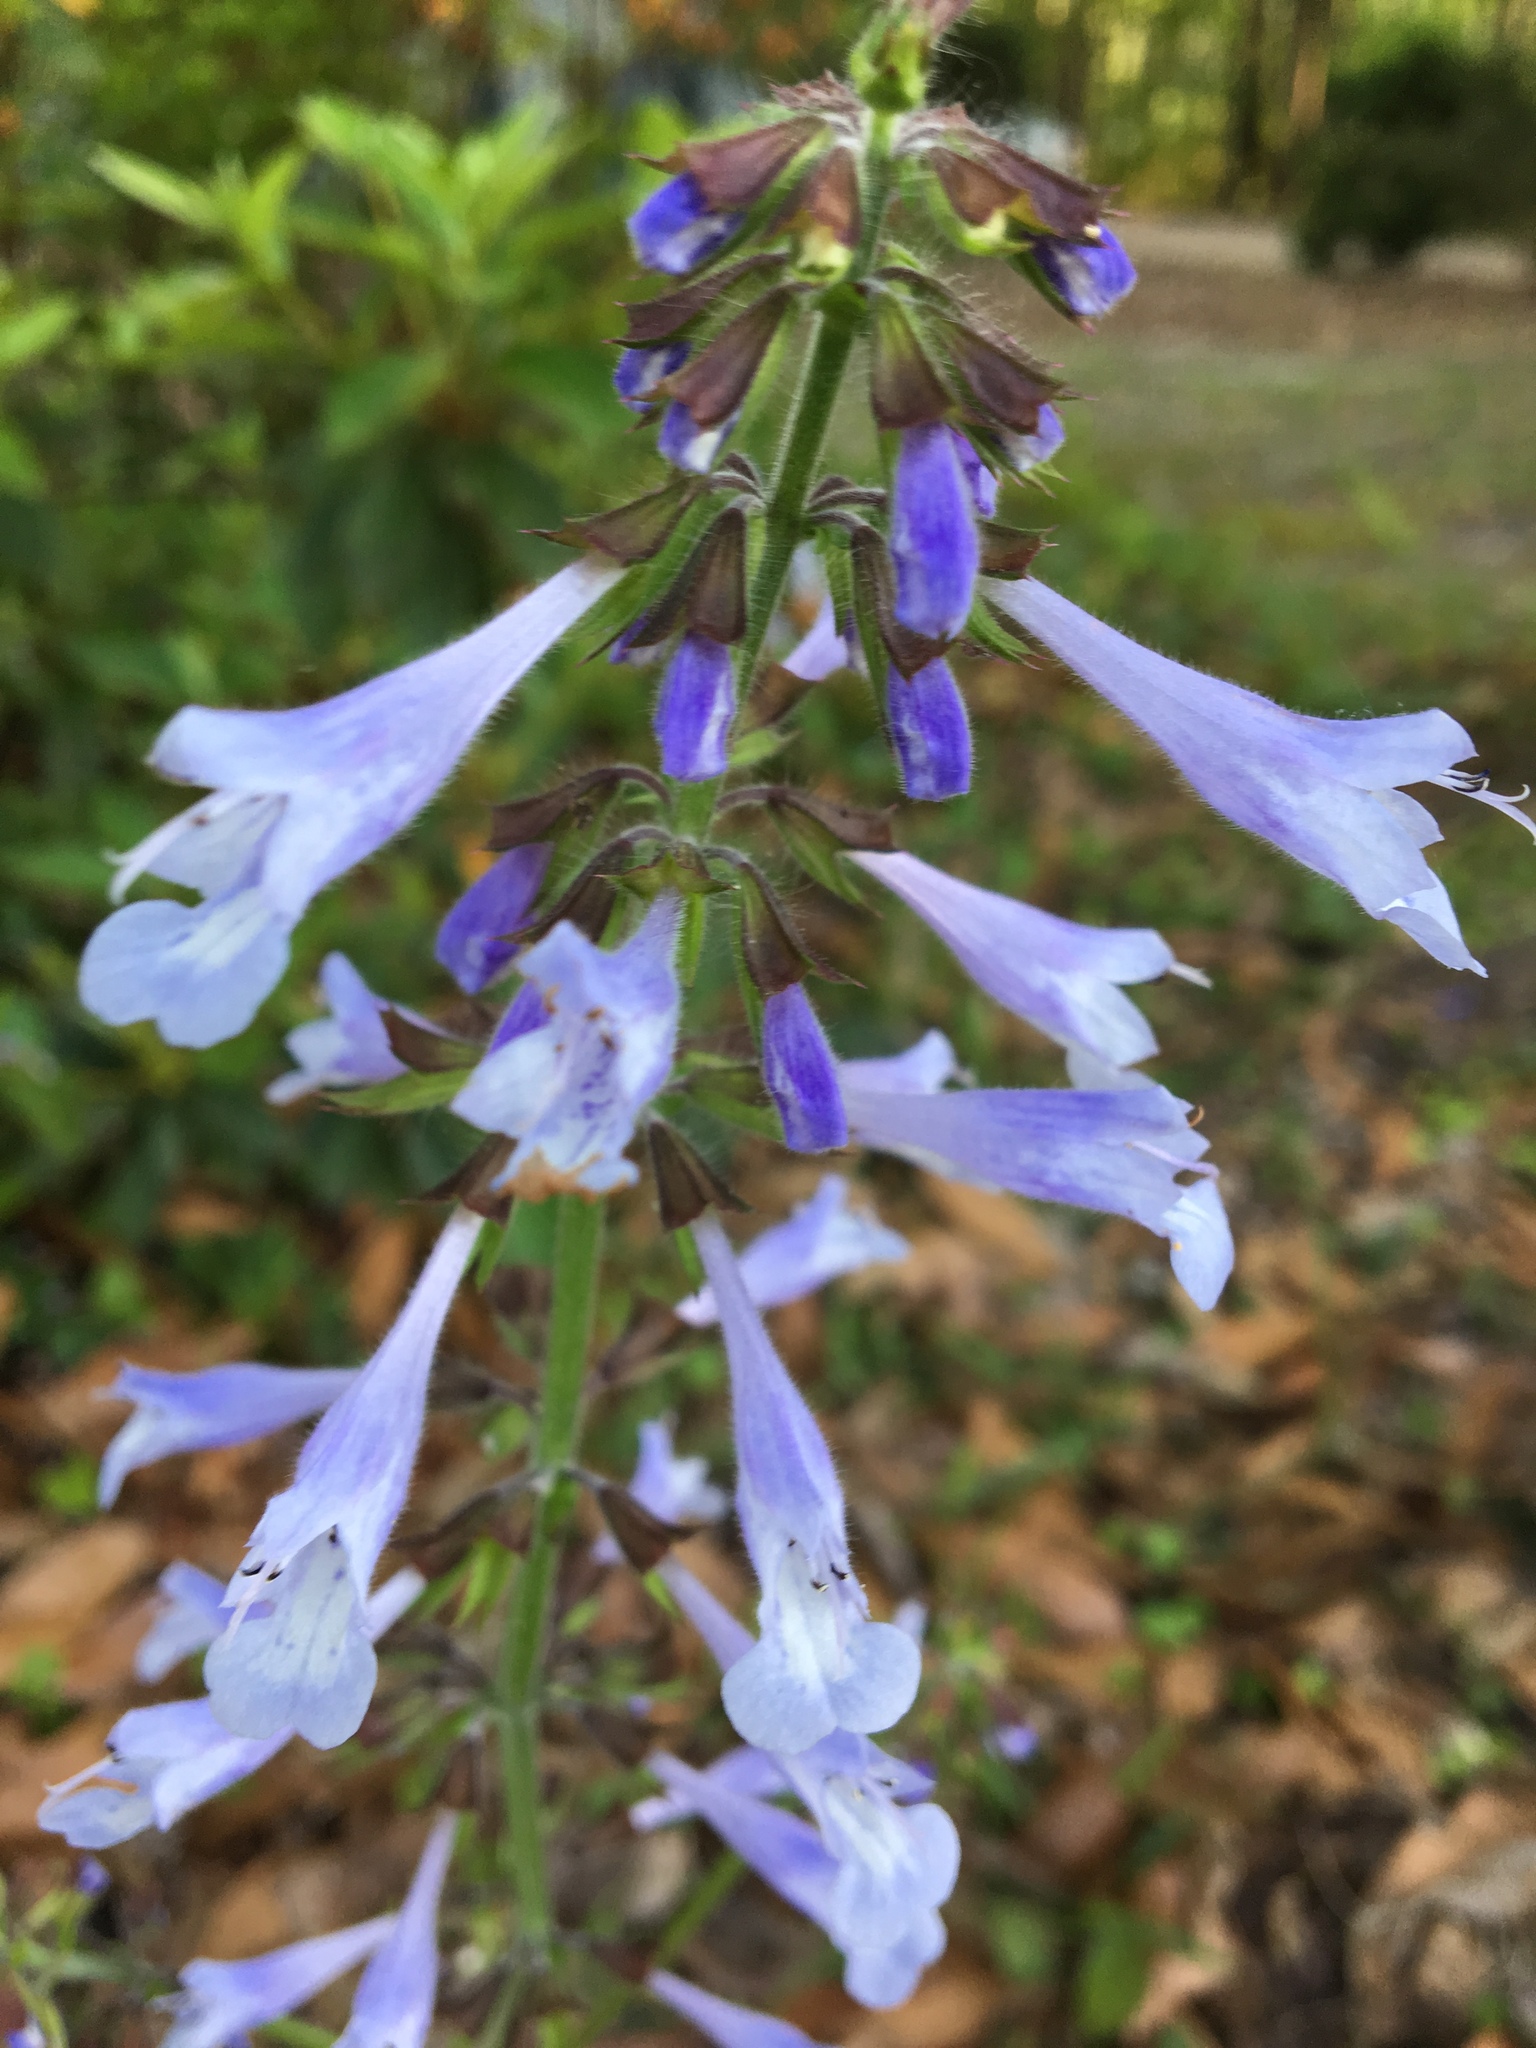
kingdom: Plantae
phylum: Tracheophyta
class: Magnoliopsida
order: Lamiales
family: Lamiaceae
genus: Salvia
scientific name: Salvia lyrata
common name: Cancerweed
